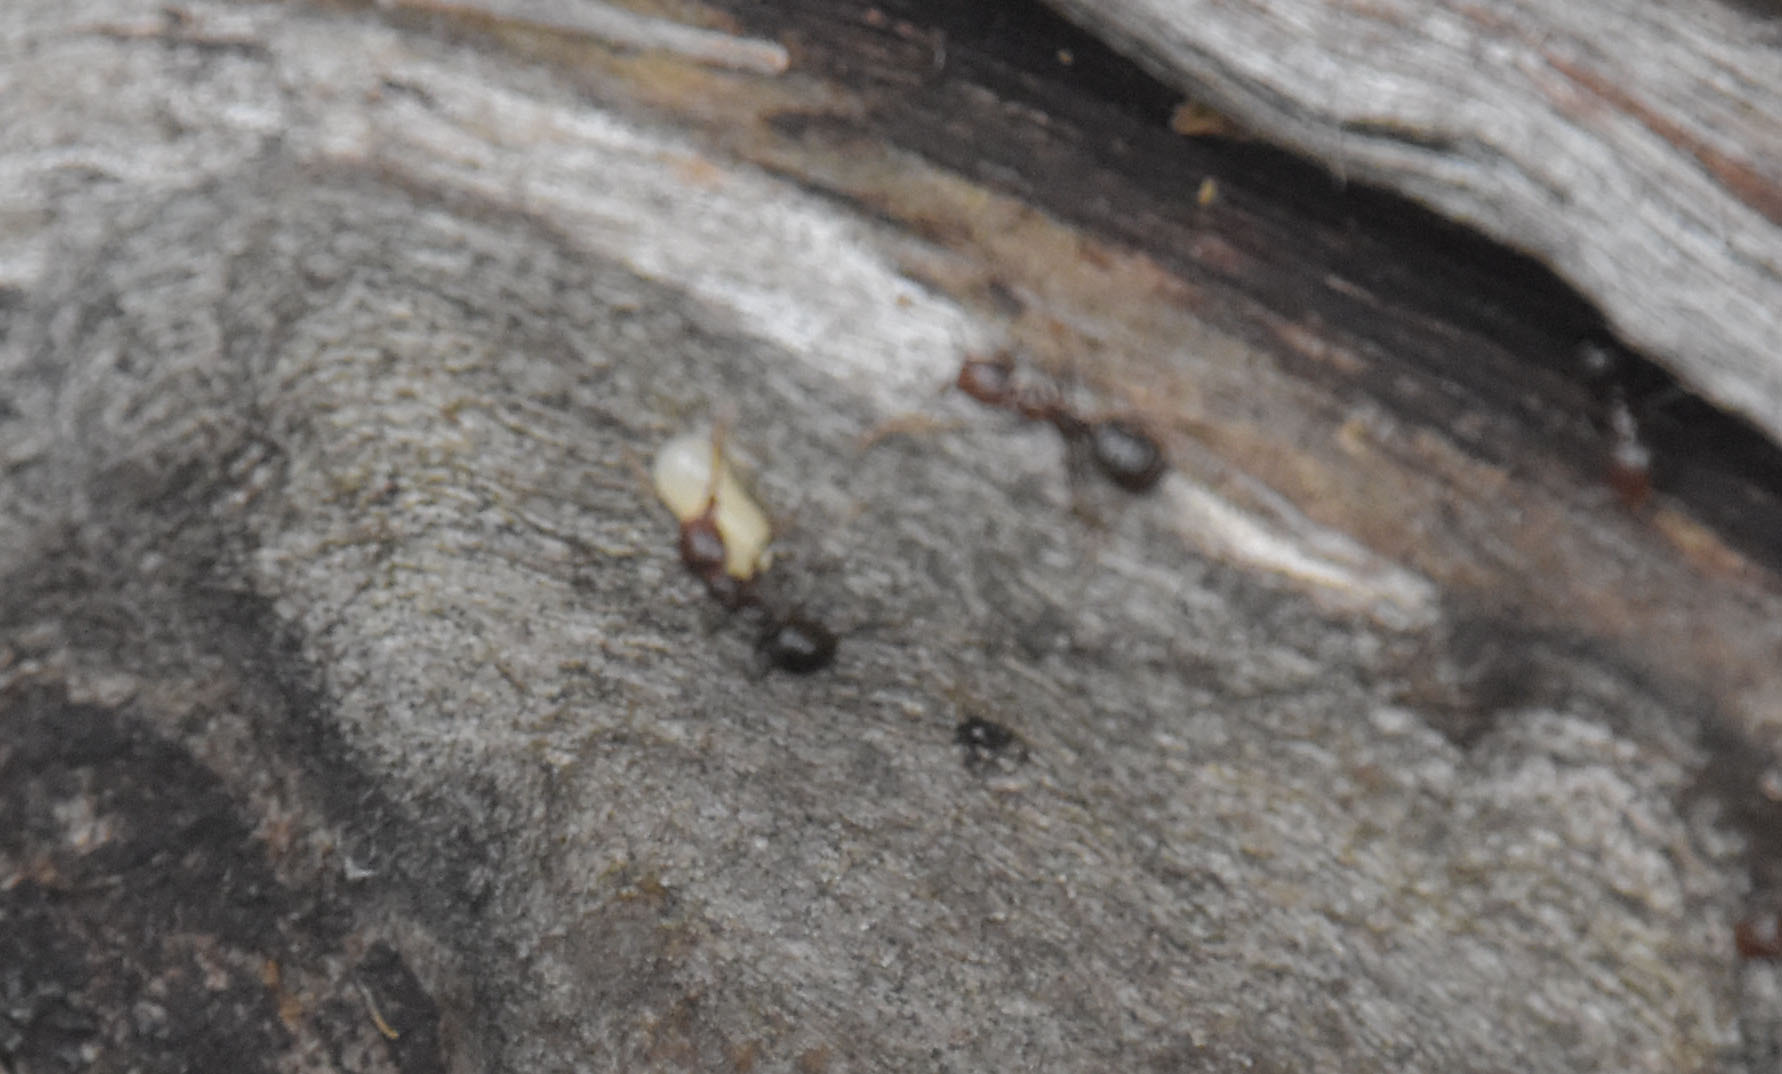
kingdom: Animalia
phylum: Arthropoda
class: Insecta
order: Hymenoptera
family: Formicidae
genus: Papyrius
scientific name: Papyrius nitidus
